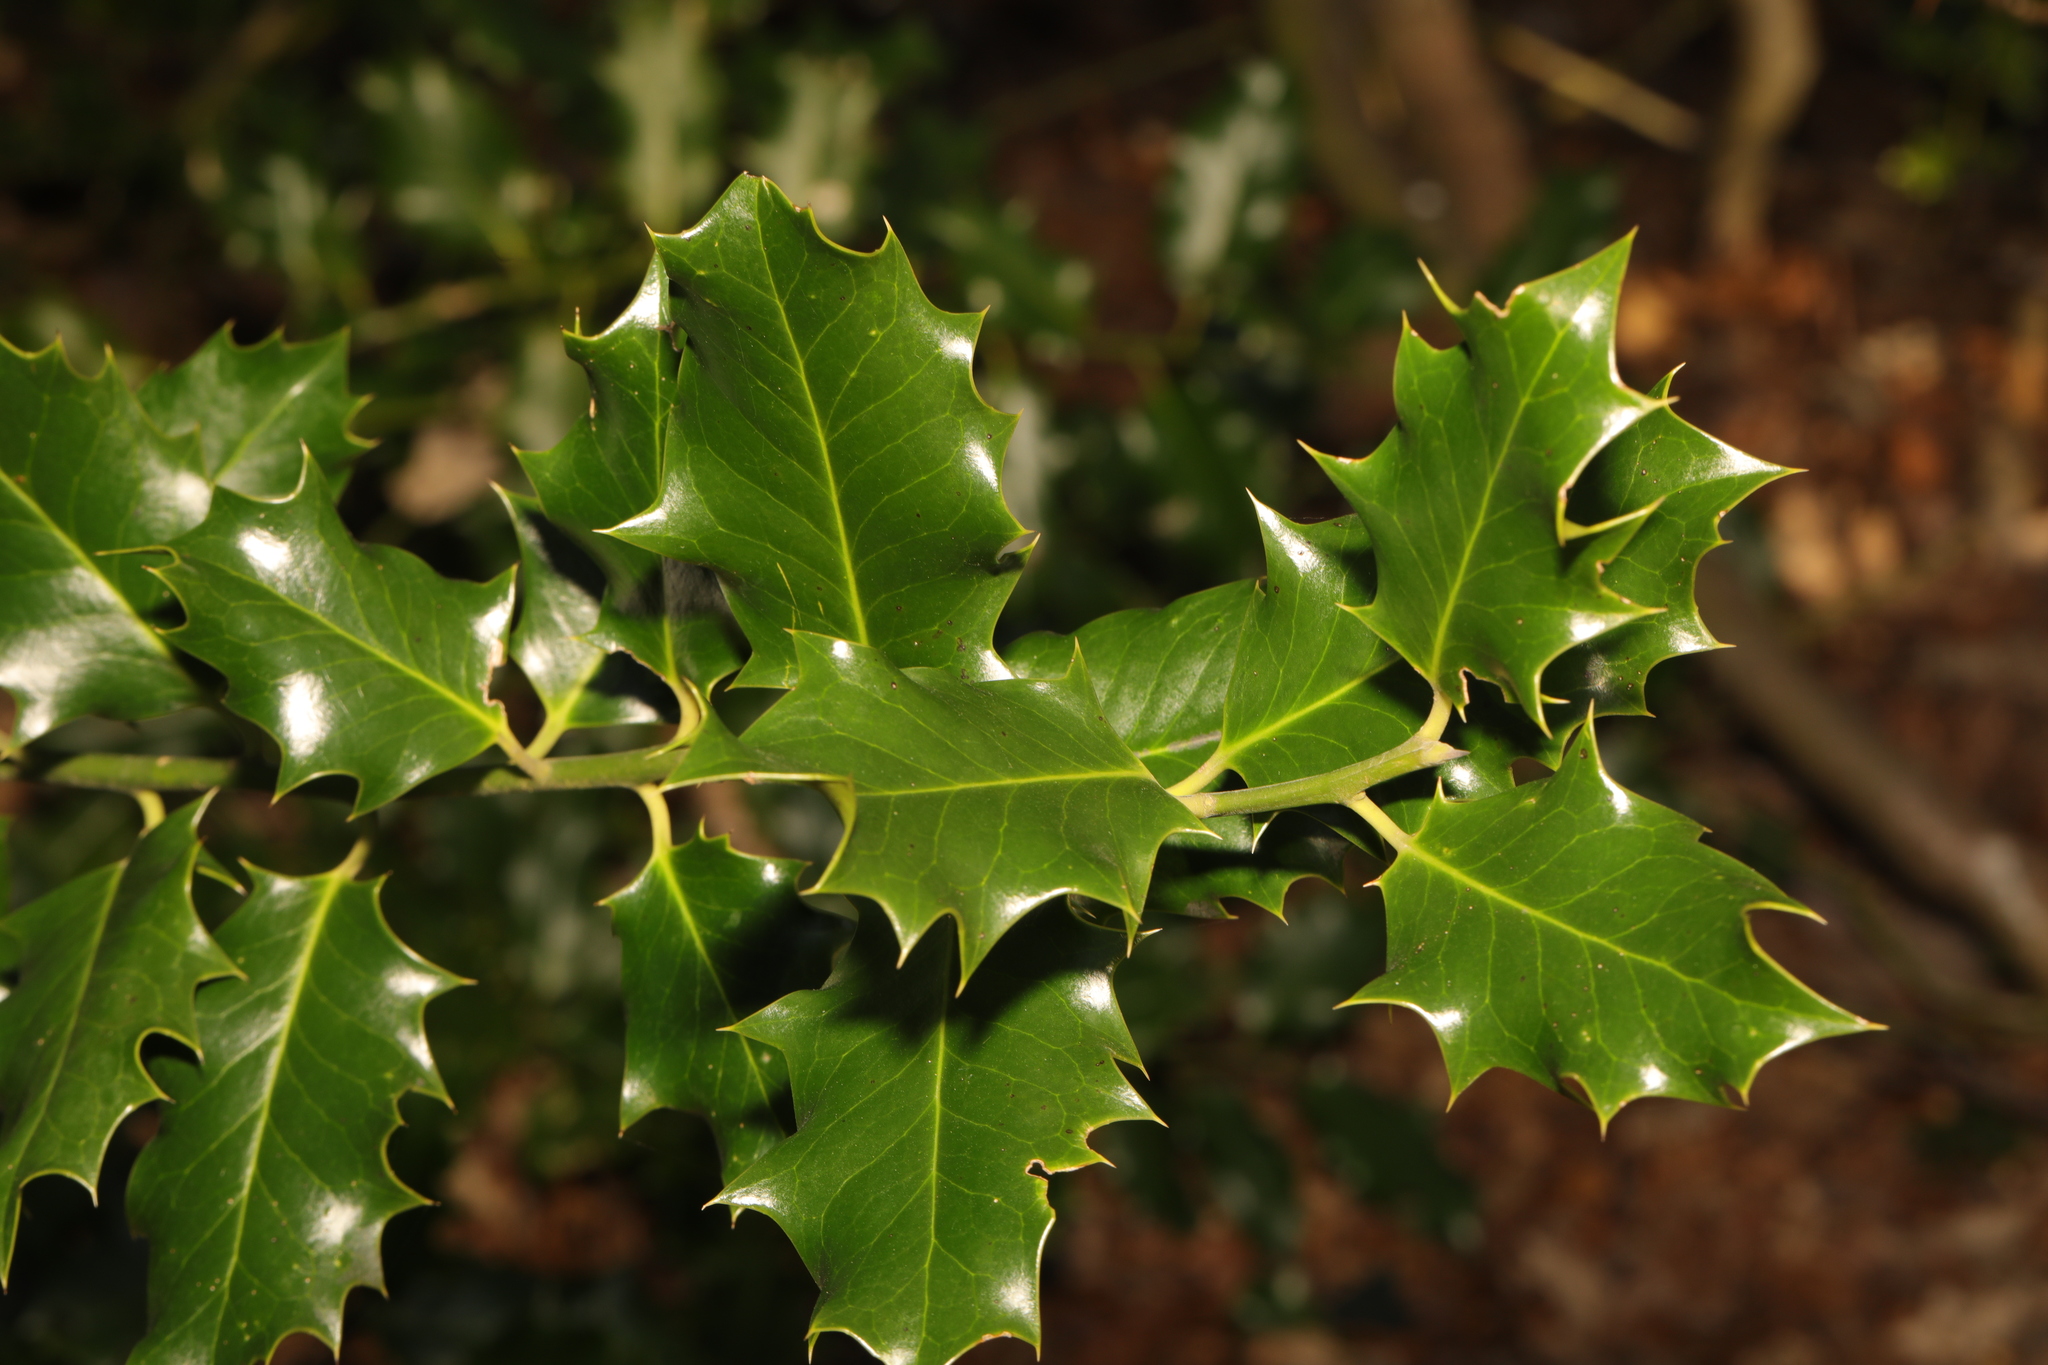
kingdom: Plantae
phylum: Tracheophyta
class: Magnoliopsida
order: Aquifoliales
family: Aquifoliaceae
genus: Ilex
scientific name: Ilex aquifolium
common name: English holly
